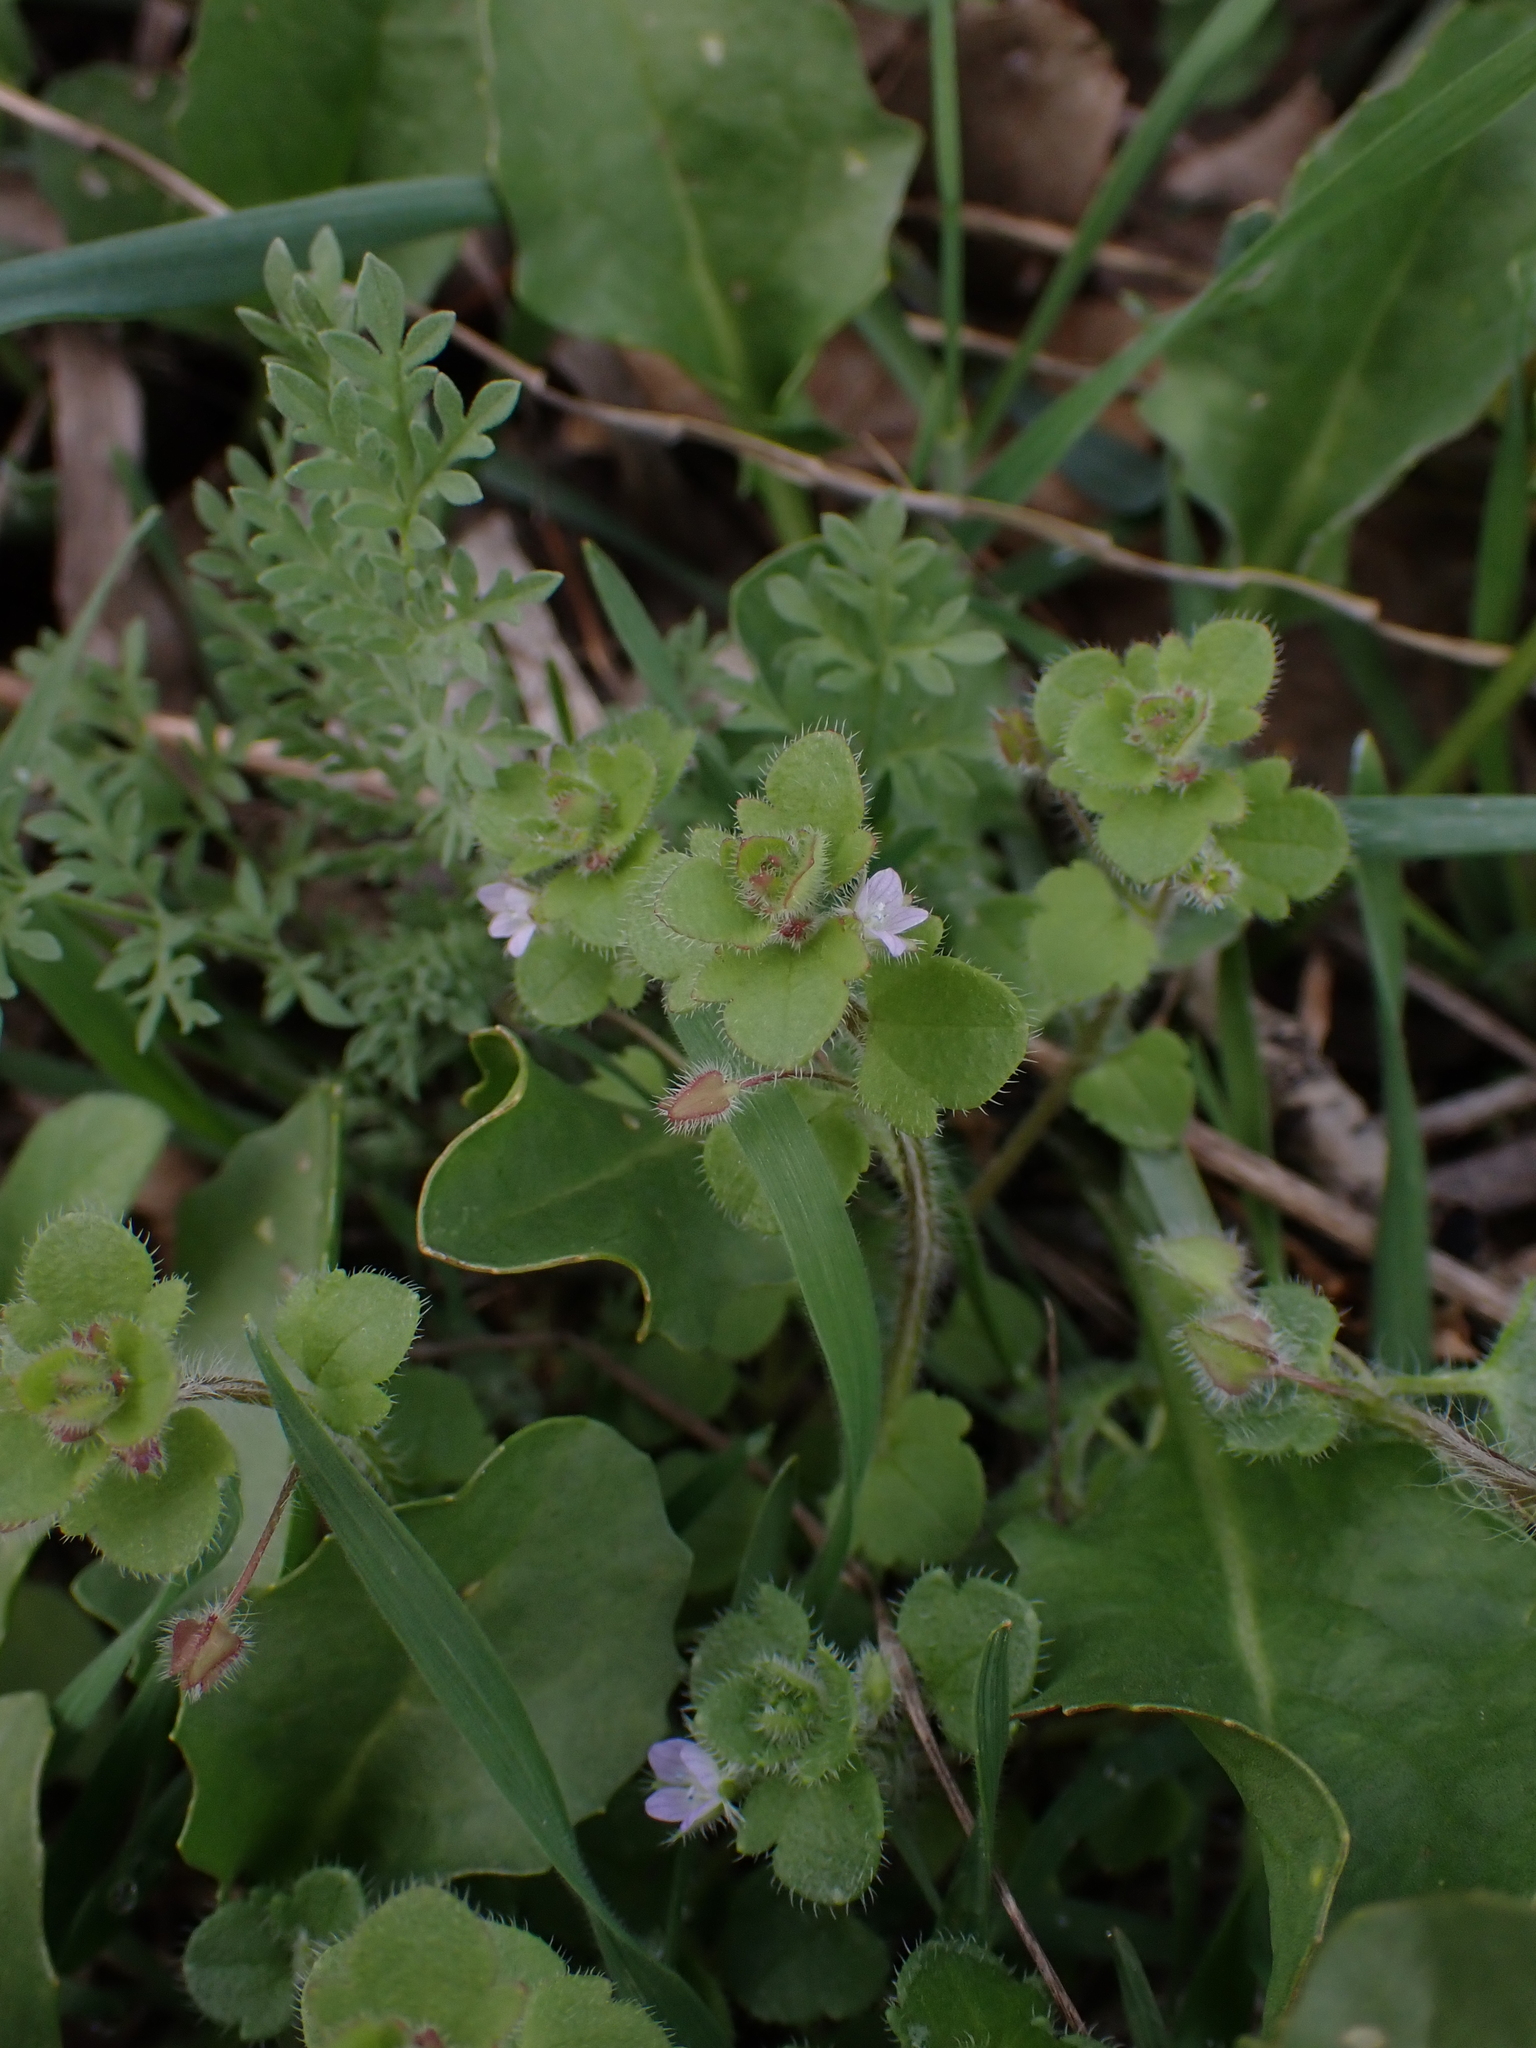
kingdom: Plantae
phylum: Tracheophyta
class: Magnoliopsida
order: Lamiales
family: Plantaginaceae
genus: Veronica
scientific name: Veronica sublobata
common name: False ivy-leaved speedwell
